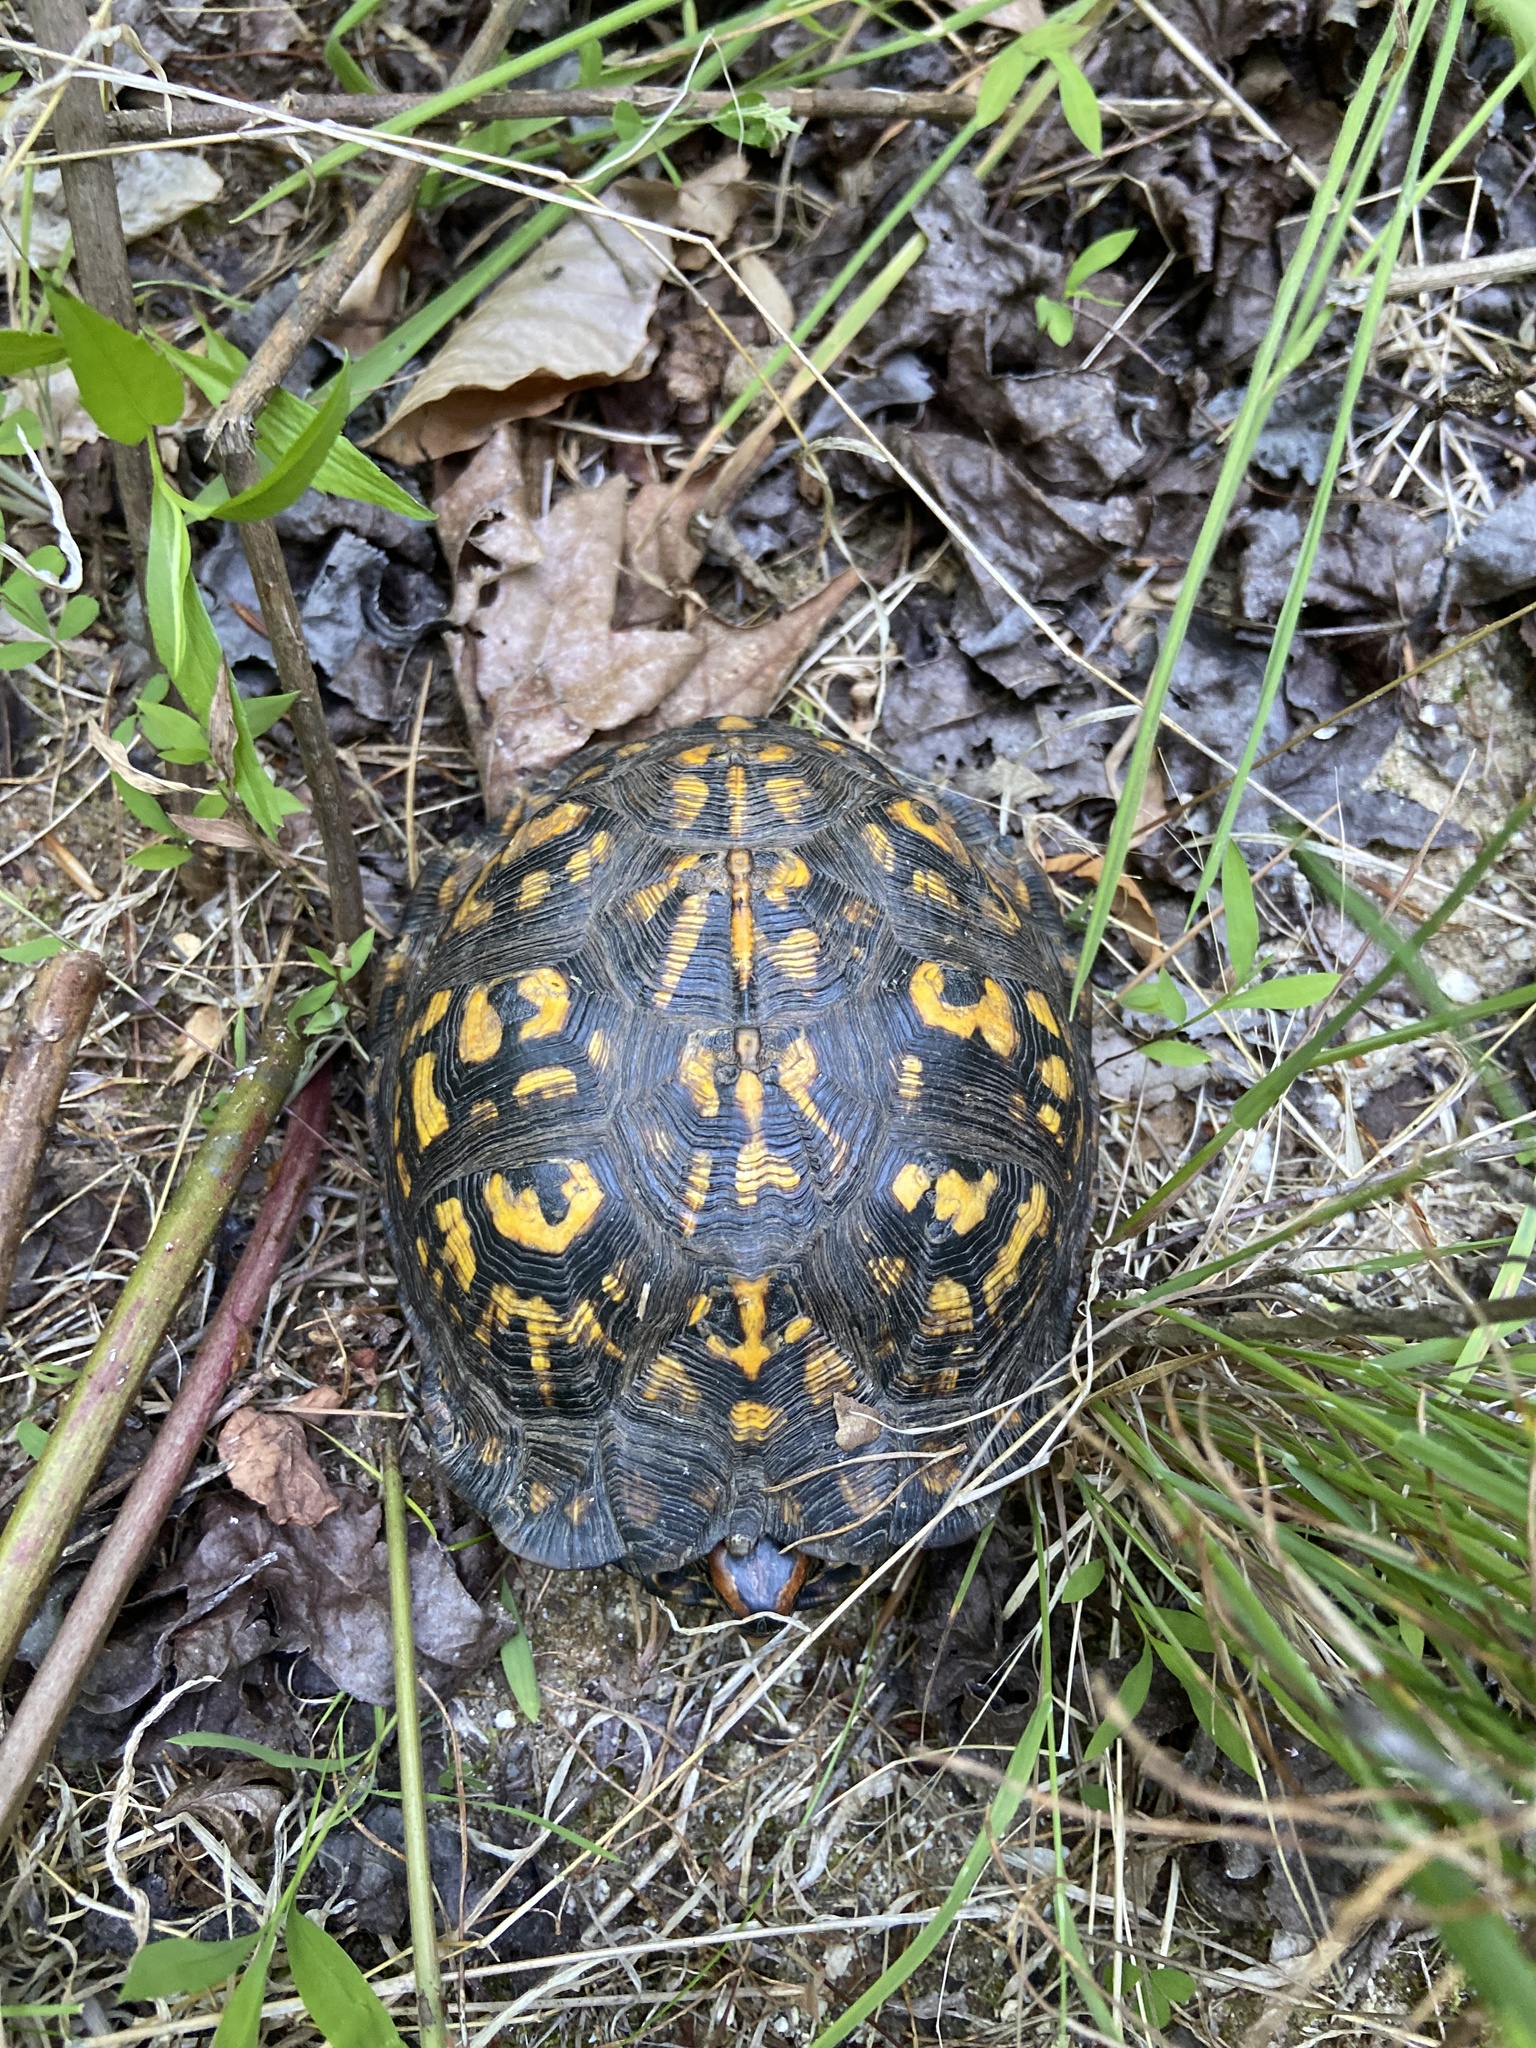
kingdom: Animalia
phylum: Chordata
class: Testudines
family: Emydidae
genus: Terrapene
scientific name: Terrapene carolina
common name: Common box turtle
